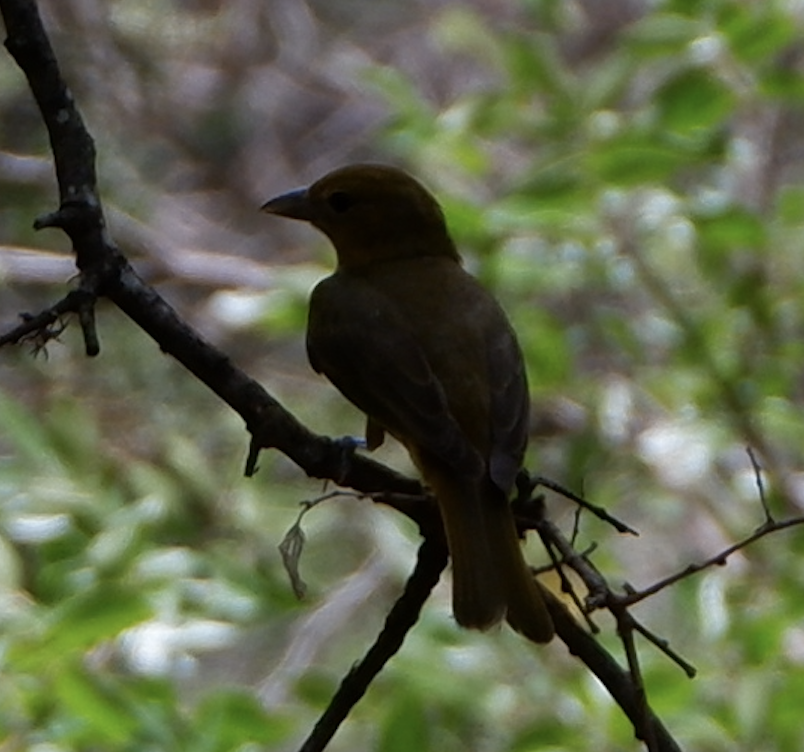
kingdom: Animalia
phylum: Chordata
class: Aves
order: Passeriformes
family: Cardinalidae
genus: Piranga
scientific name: Piranga rubra
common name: Summer tanager
